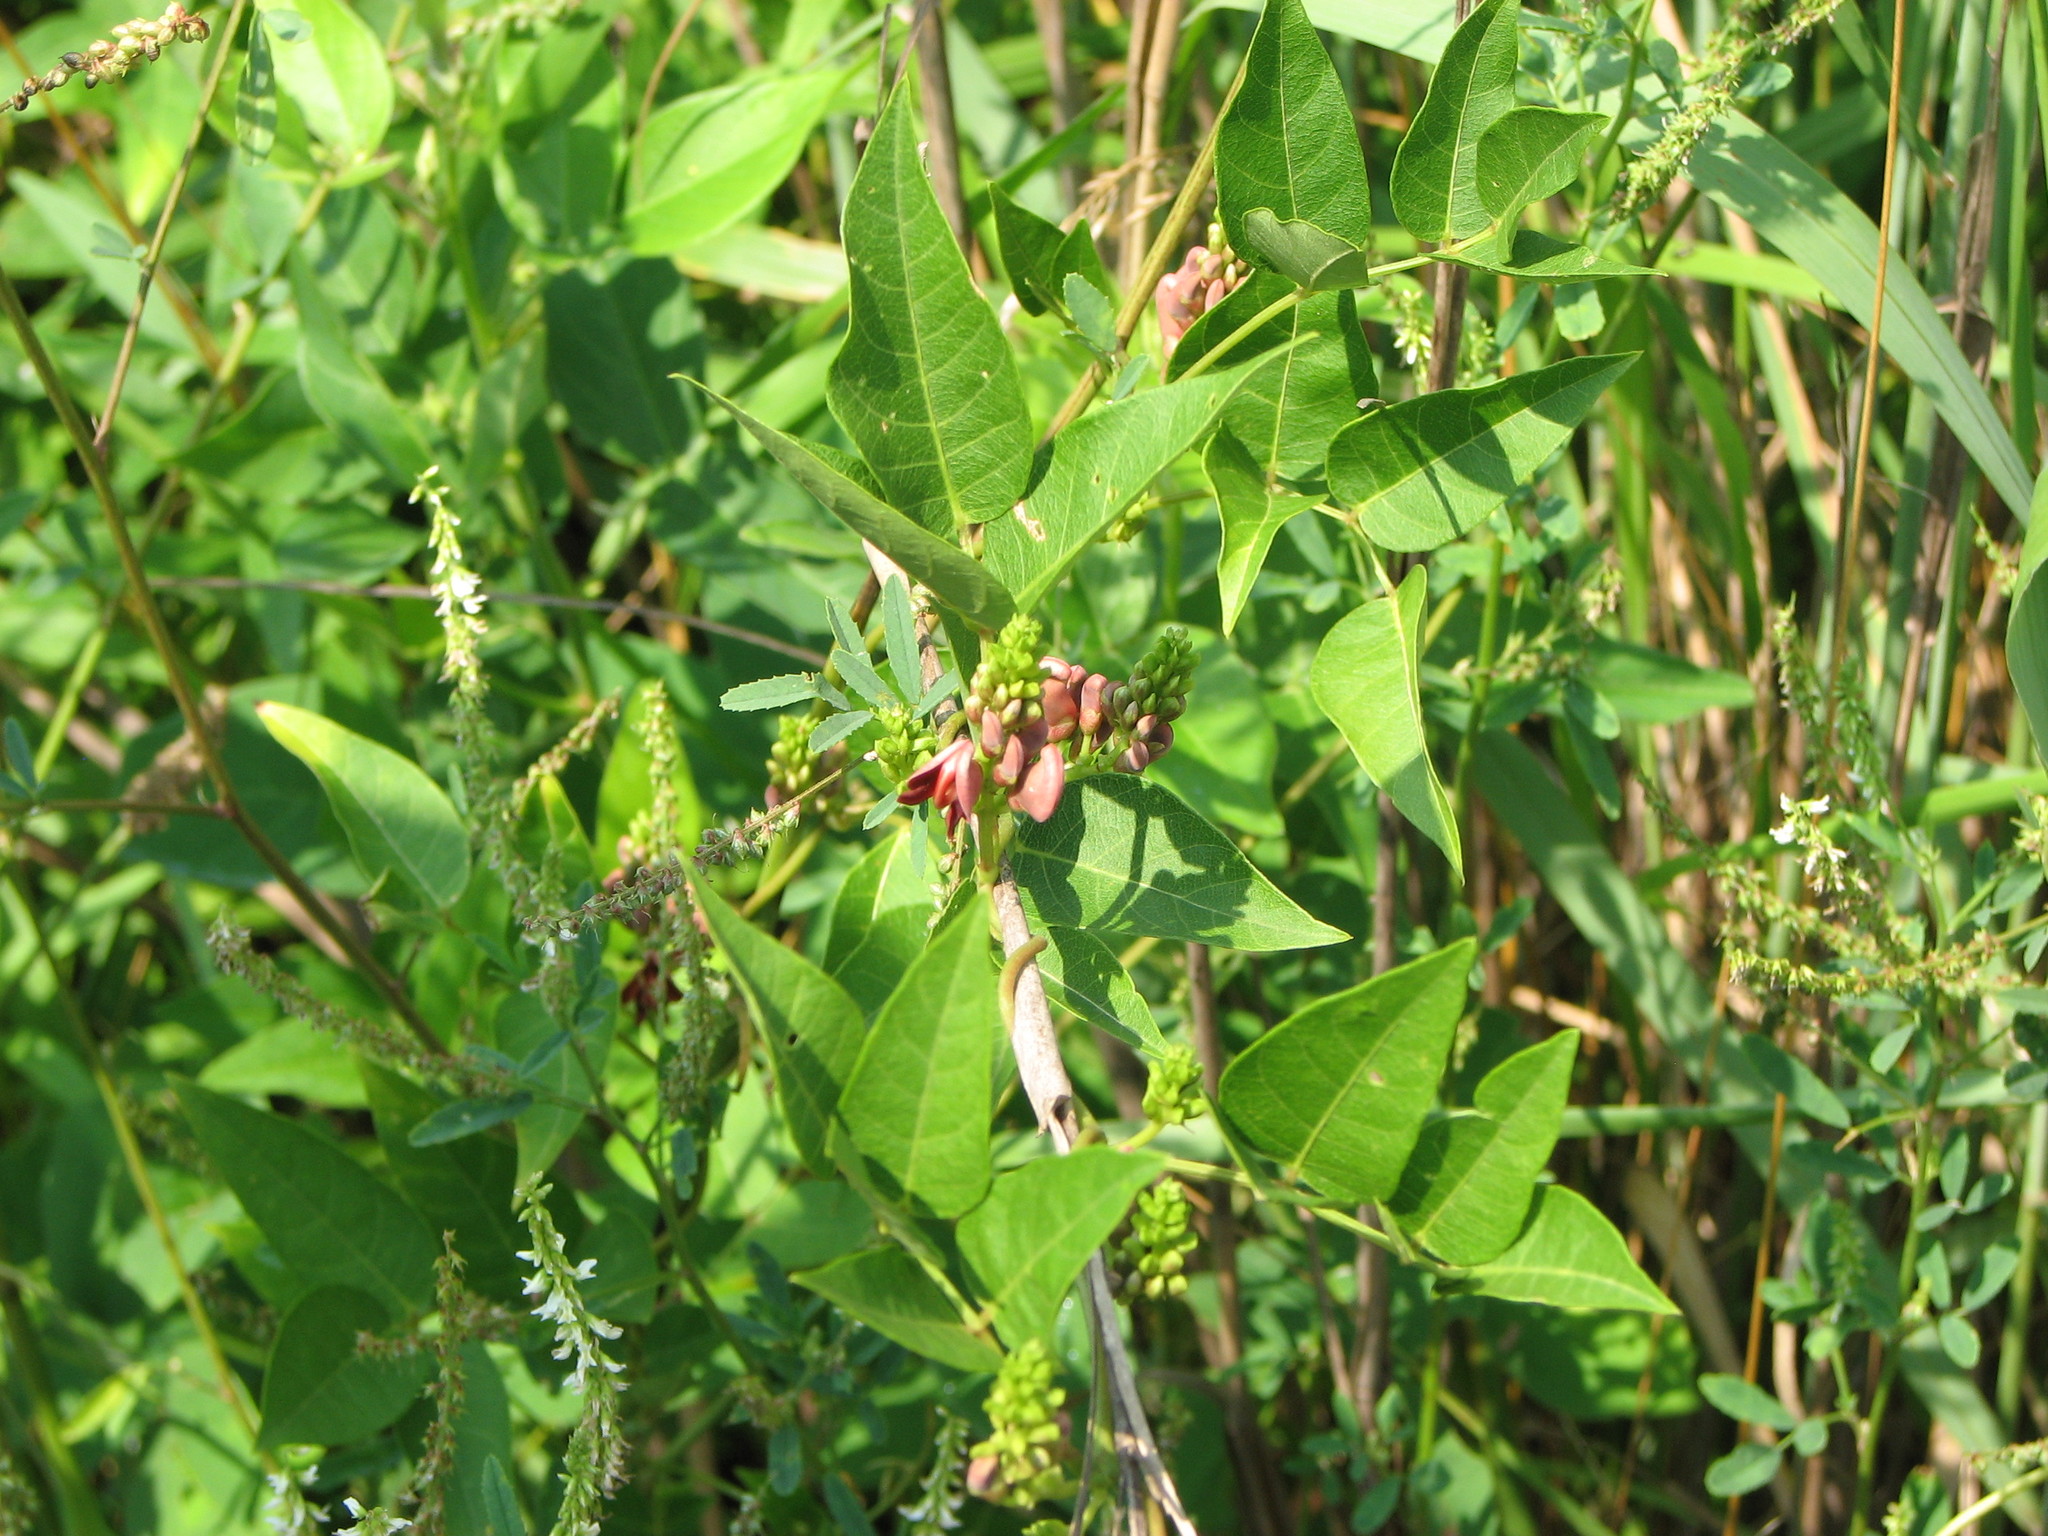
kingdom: Plantae
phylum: Tracheophyta
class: Magnoliopsida
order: Fabales
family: Fabaceae
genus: Apios
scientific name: Apios americana
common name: American potato-bean
